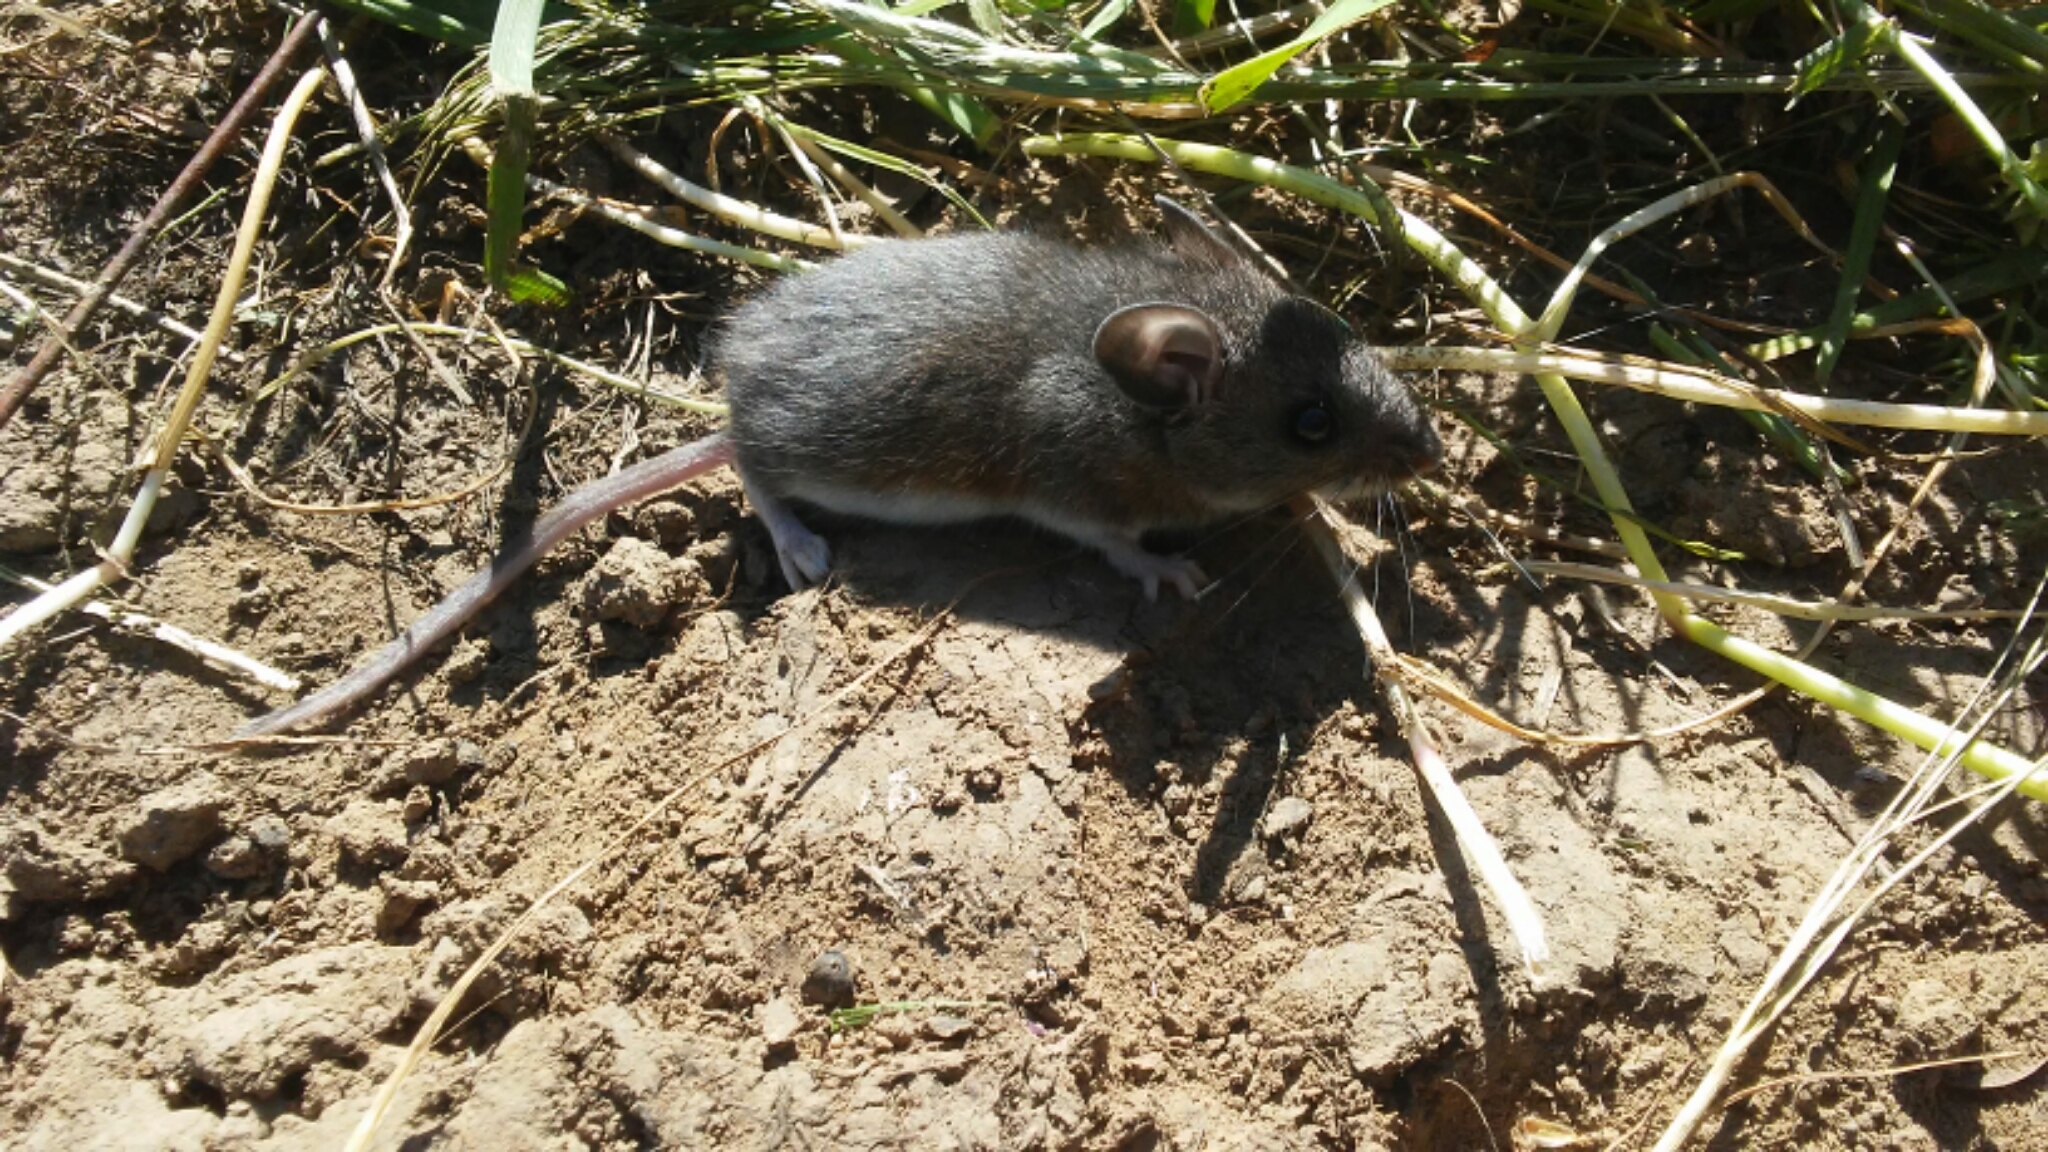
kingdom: Animalia
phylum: Chordata
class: Mammalia
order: Rodentia
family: Cricetidae
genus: Peromyscus
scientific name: Peromyscus maniculatus
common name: Deer mouse
